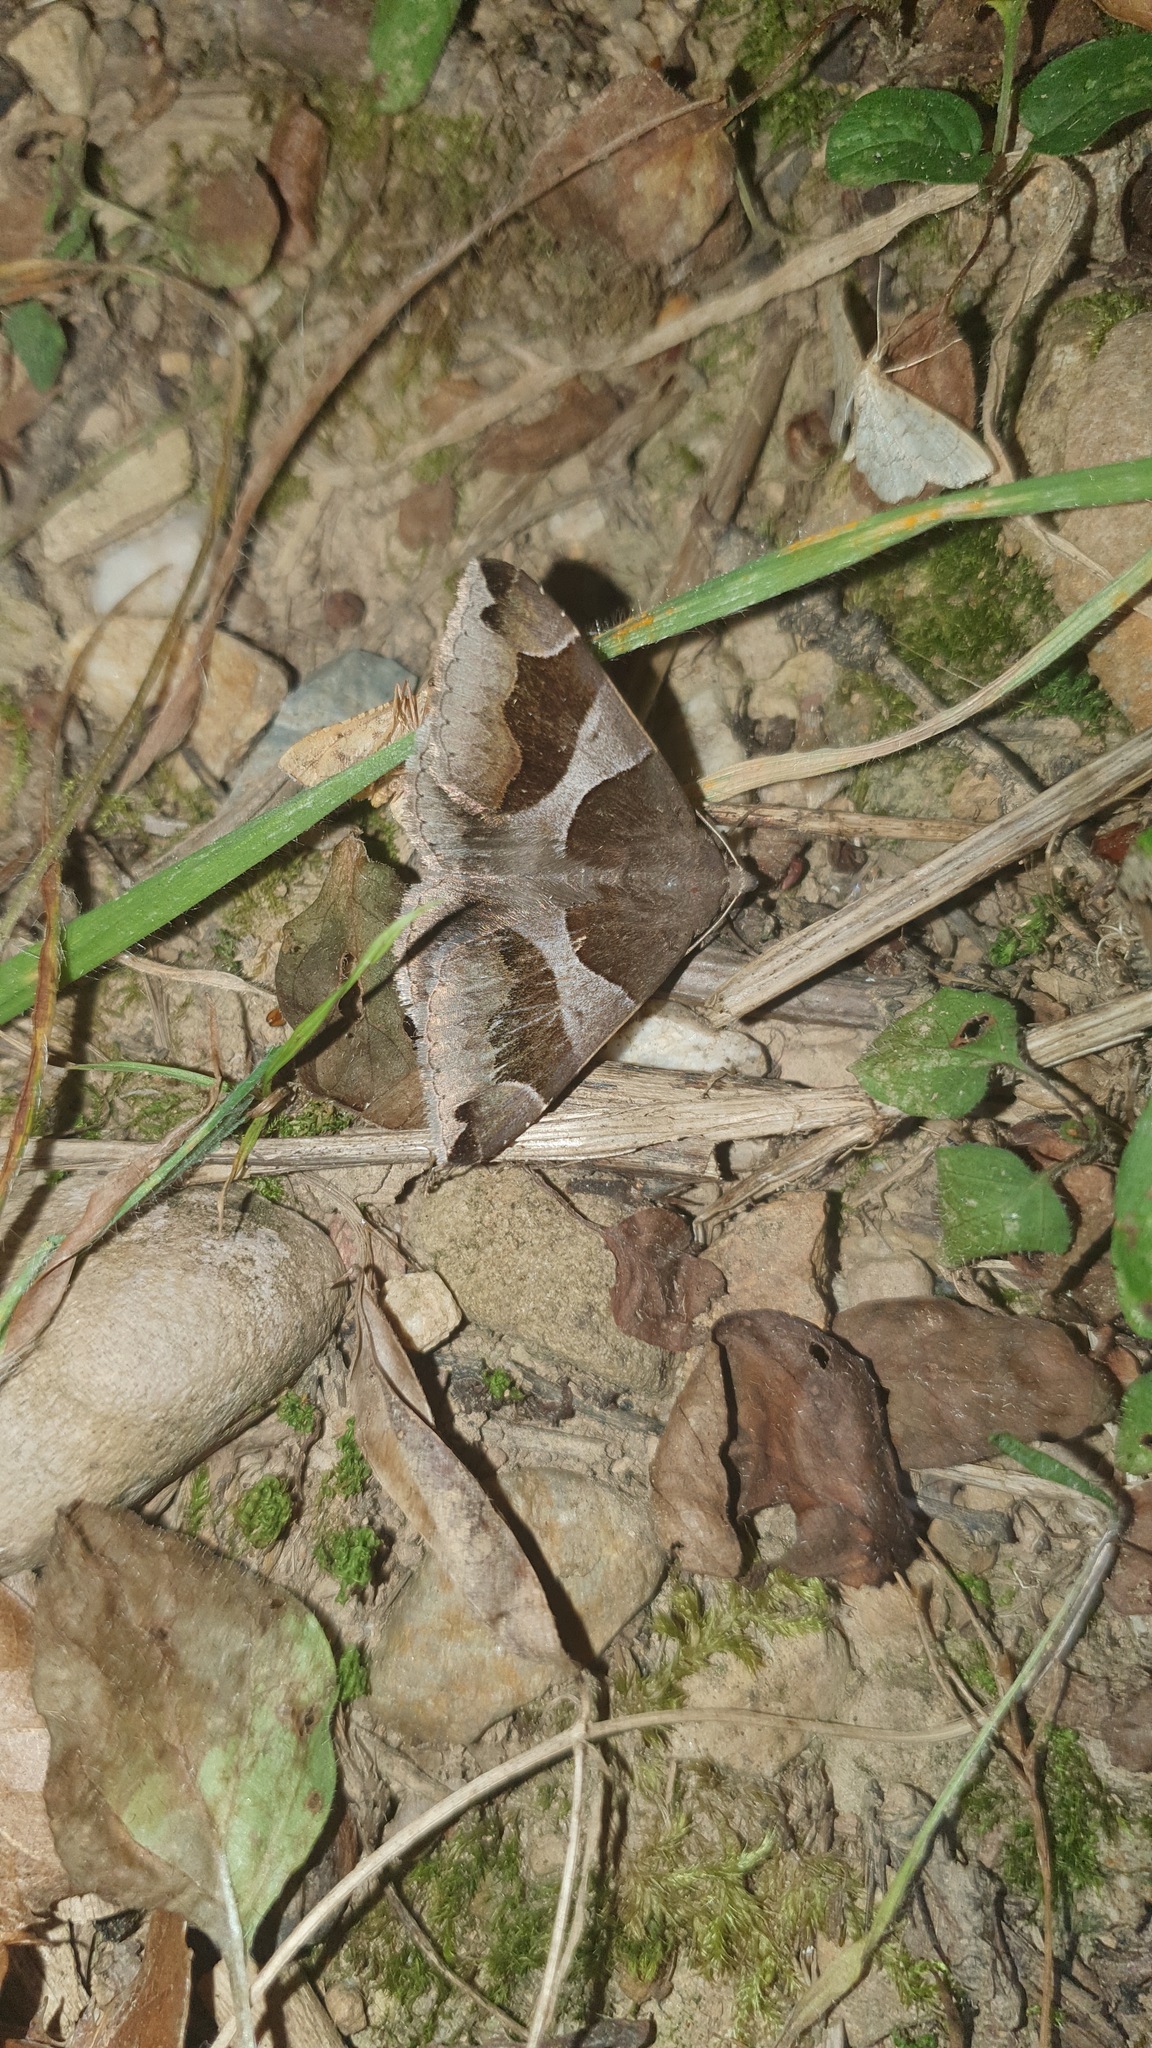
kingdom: Animalia
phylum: Arthropoda
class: Insecta
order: Lepidoptera
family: Erebidae
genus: Dysgonia
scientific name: Dysgonia algira
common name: Passenger
